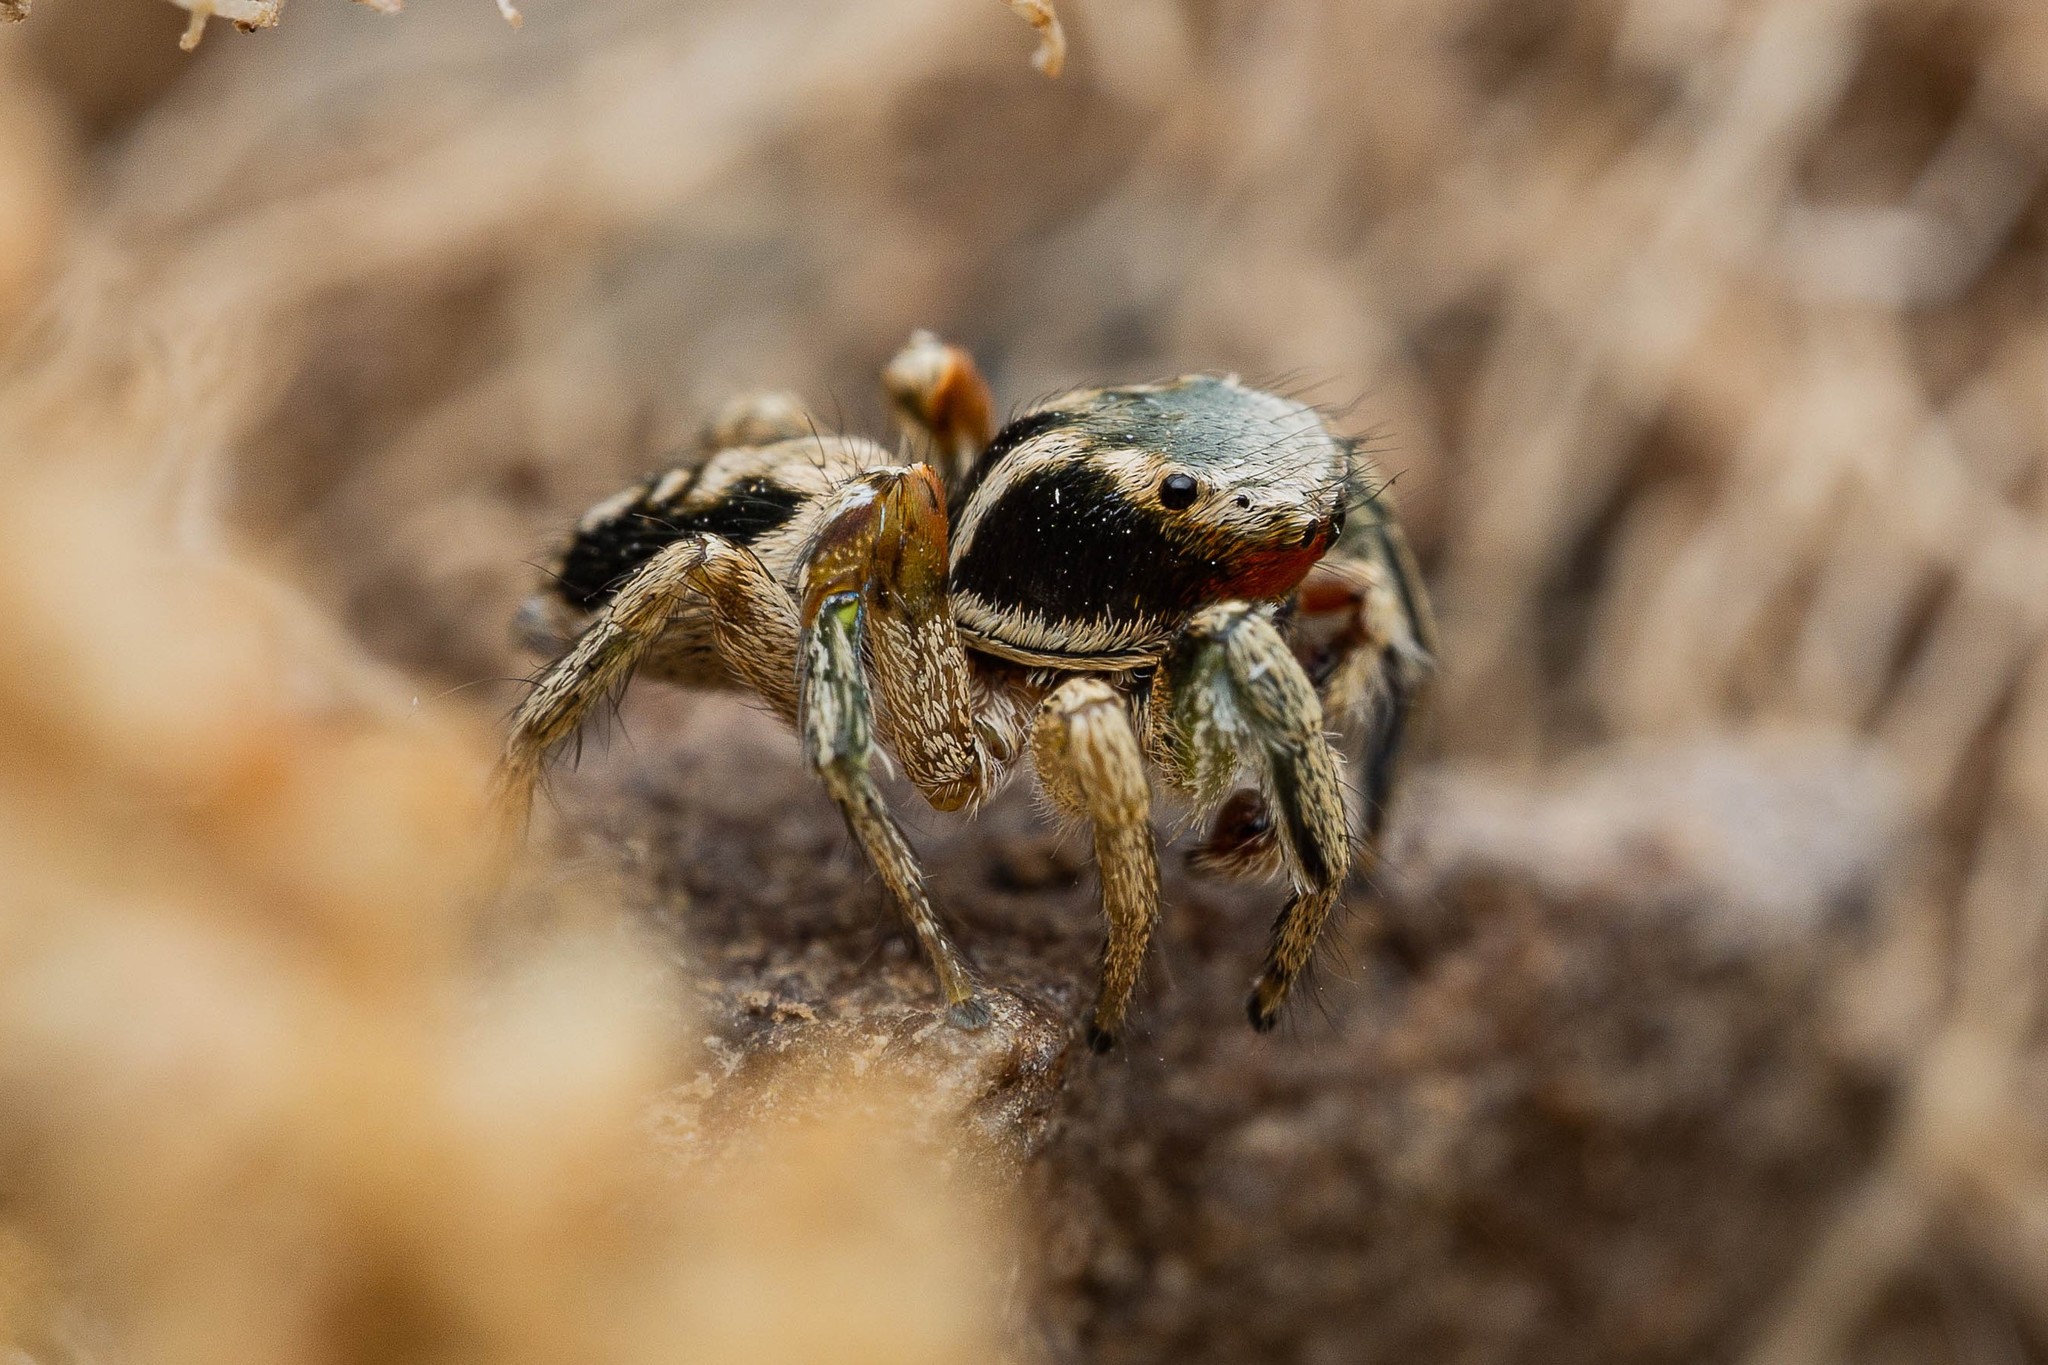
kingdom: Animalia
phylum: Arthropoda
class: Arachnida
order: Araneae
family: Salticidae
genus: Habronattus
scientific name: Habronattus pyrrithrix
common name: Jumping spider
